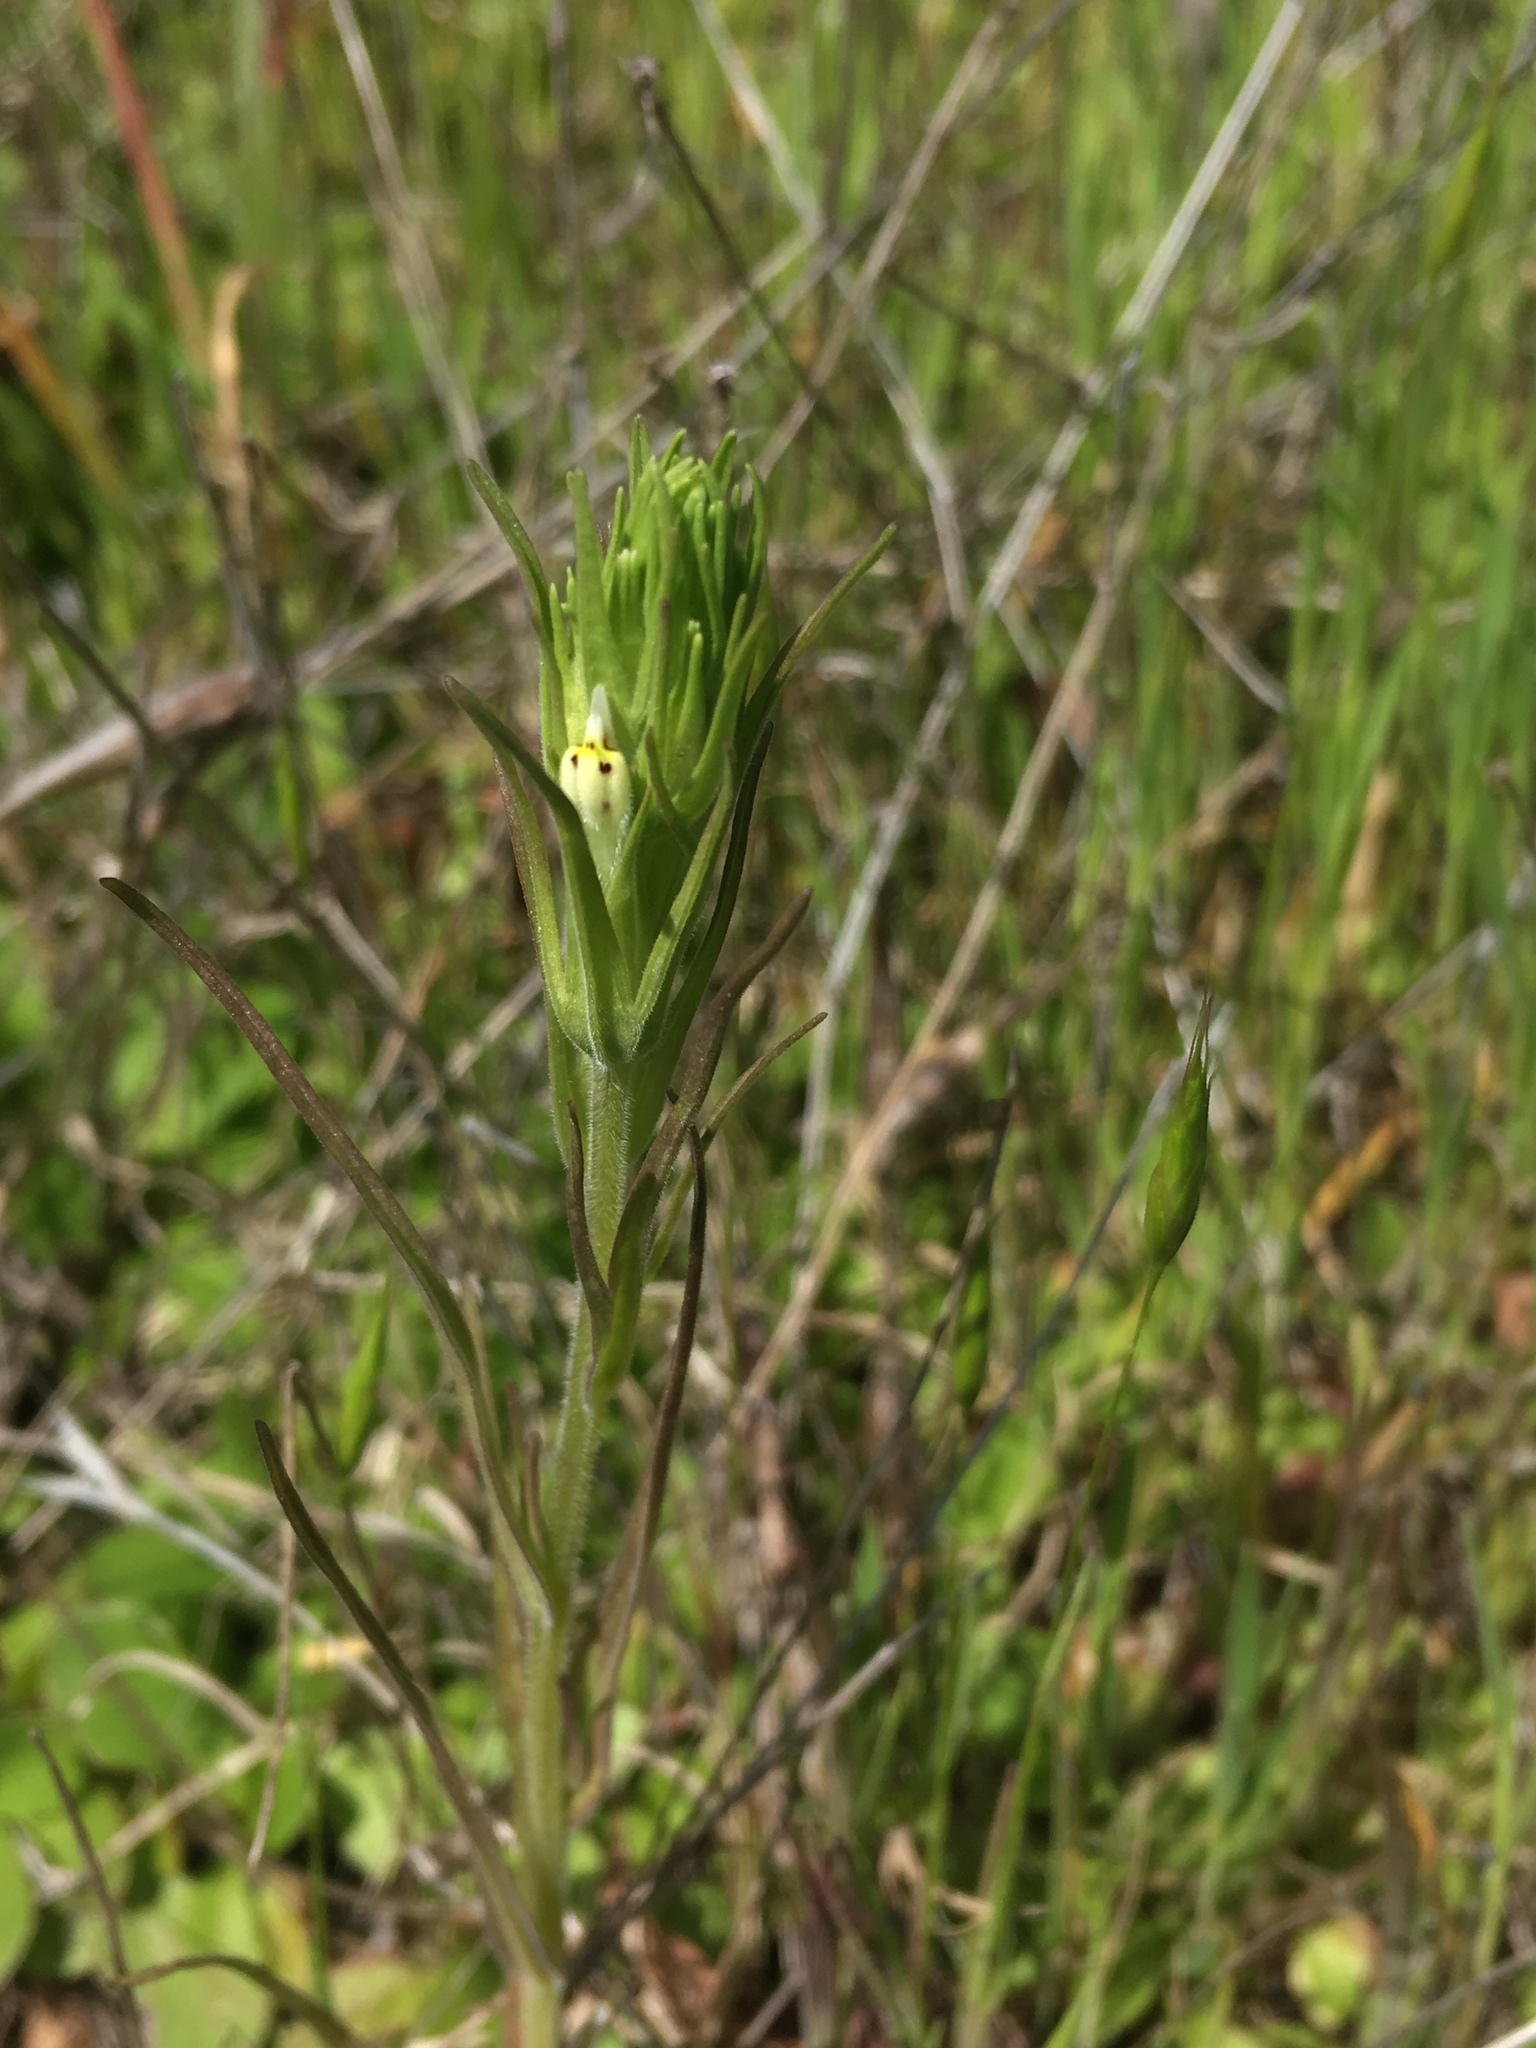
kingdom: Plantae
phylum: Tracheophyta
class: Magnoliopsida
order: Lamiales
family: Orobanchaceae
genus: Castilleja
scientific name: Castilleja attenuata
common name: Valley tassels
